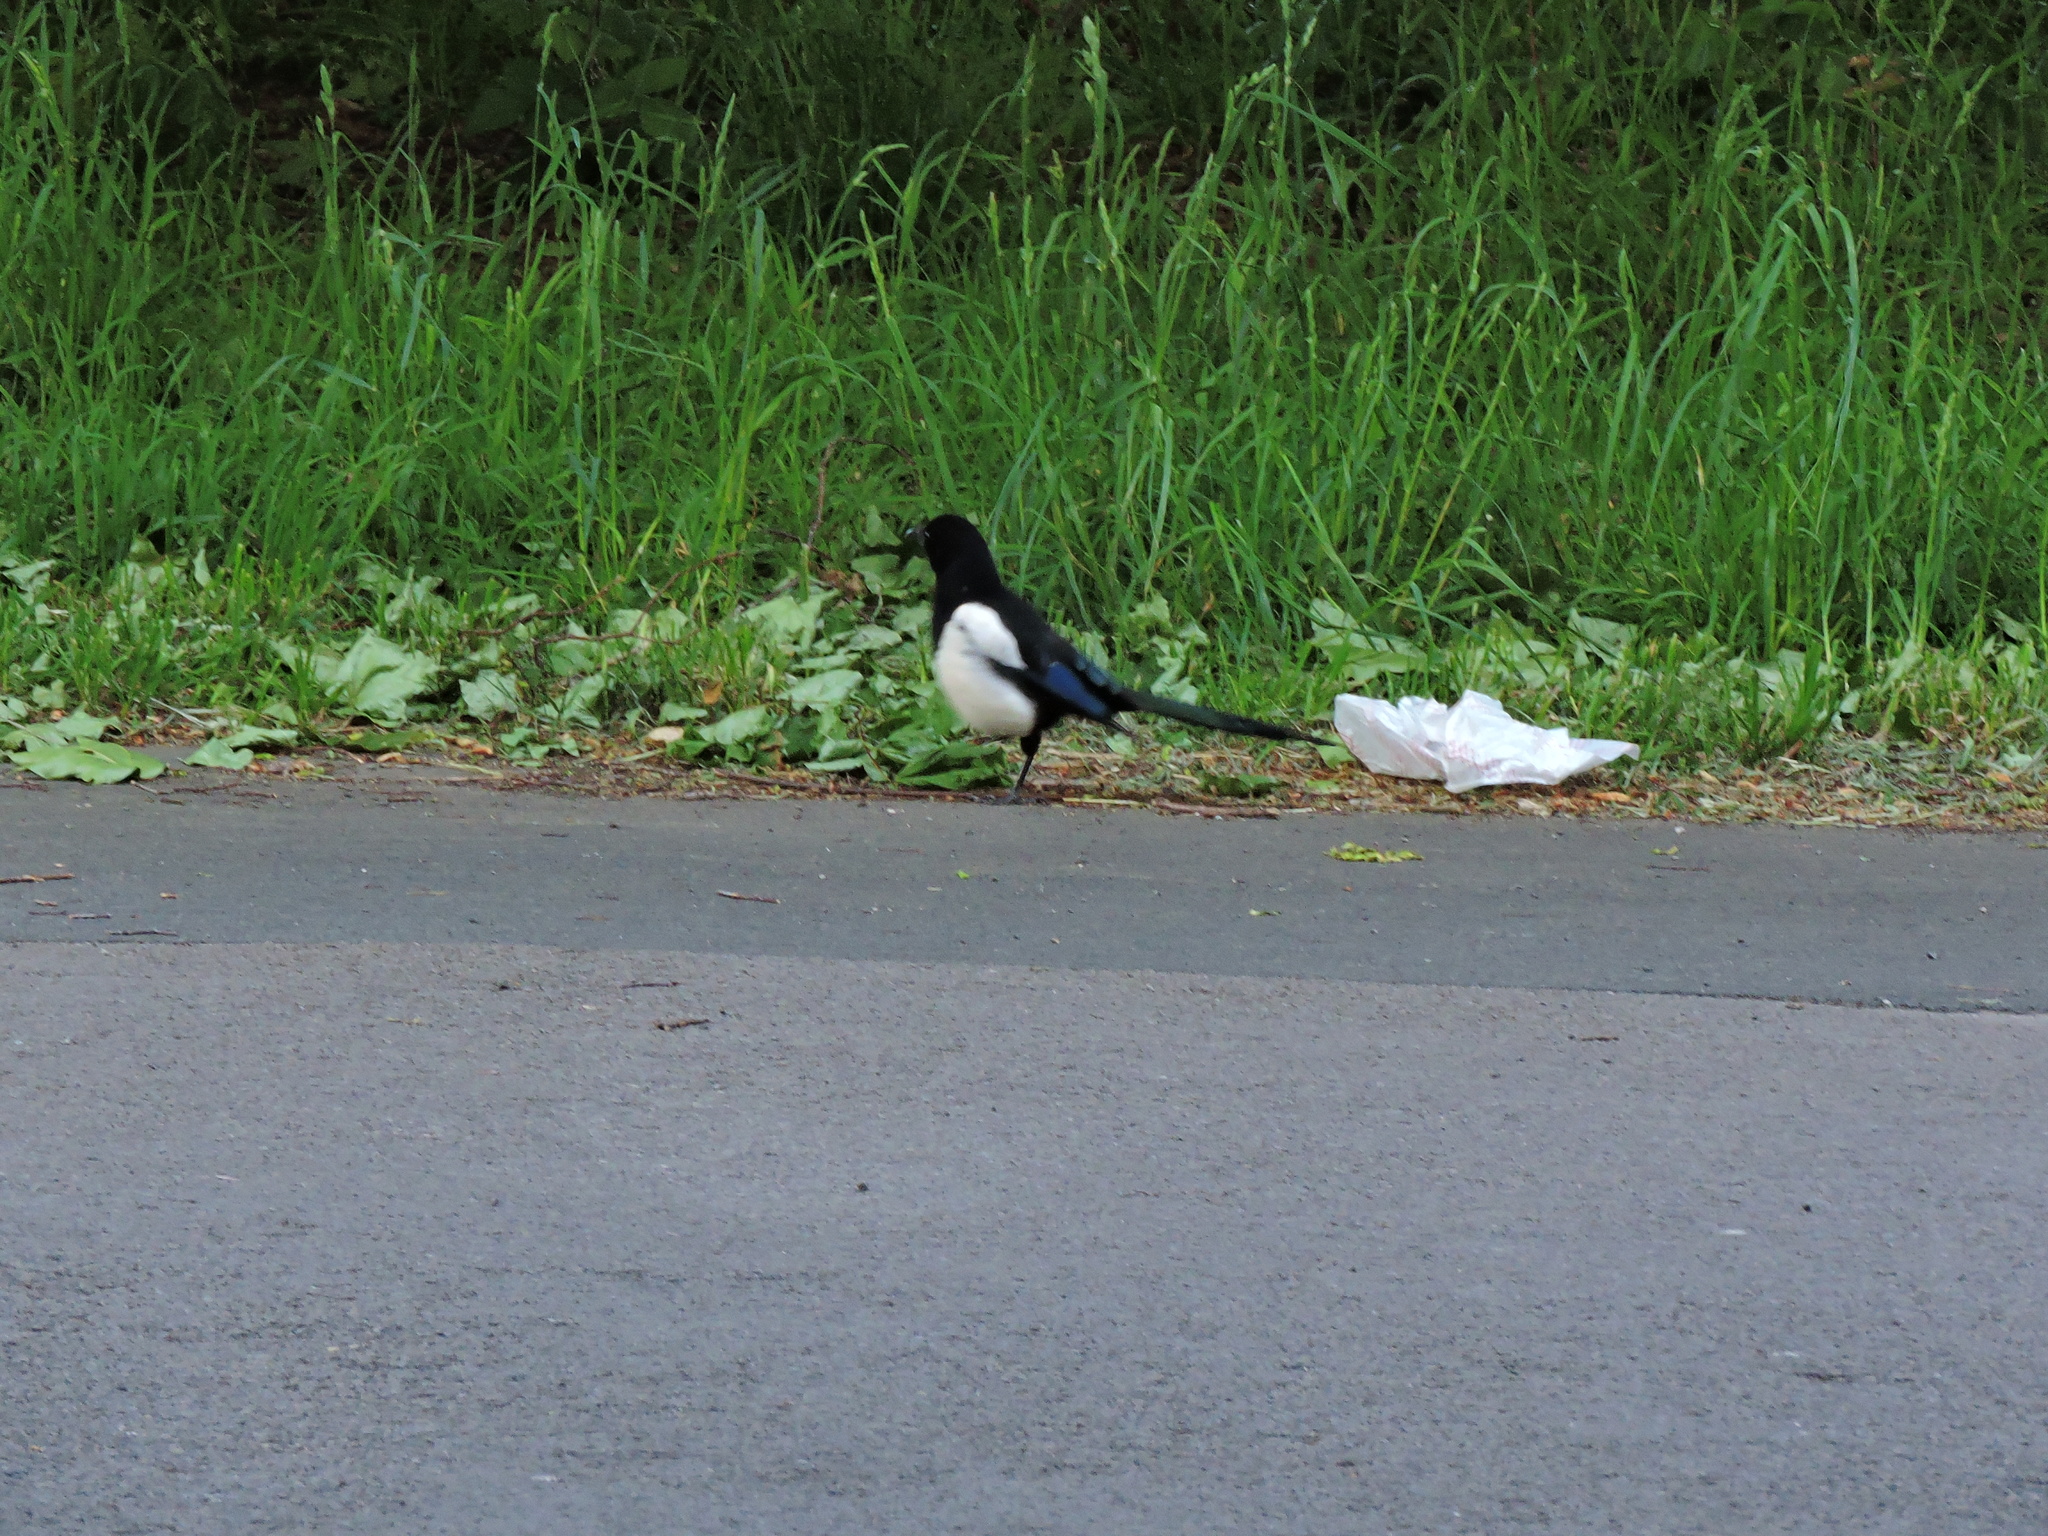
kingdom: Animalia
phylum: Chordata
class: Aves
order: Passeriformes
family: Corvidae
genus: Pica
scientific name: Pica pica
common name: Eurasian magpie
